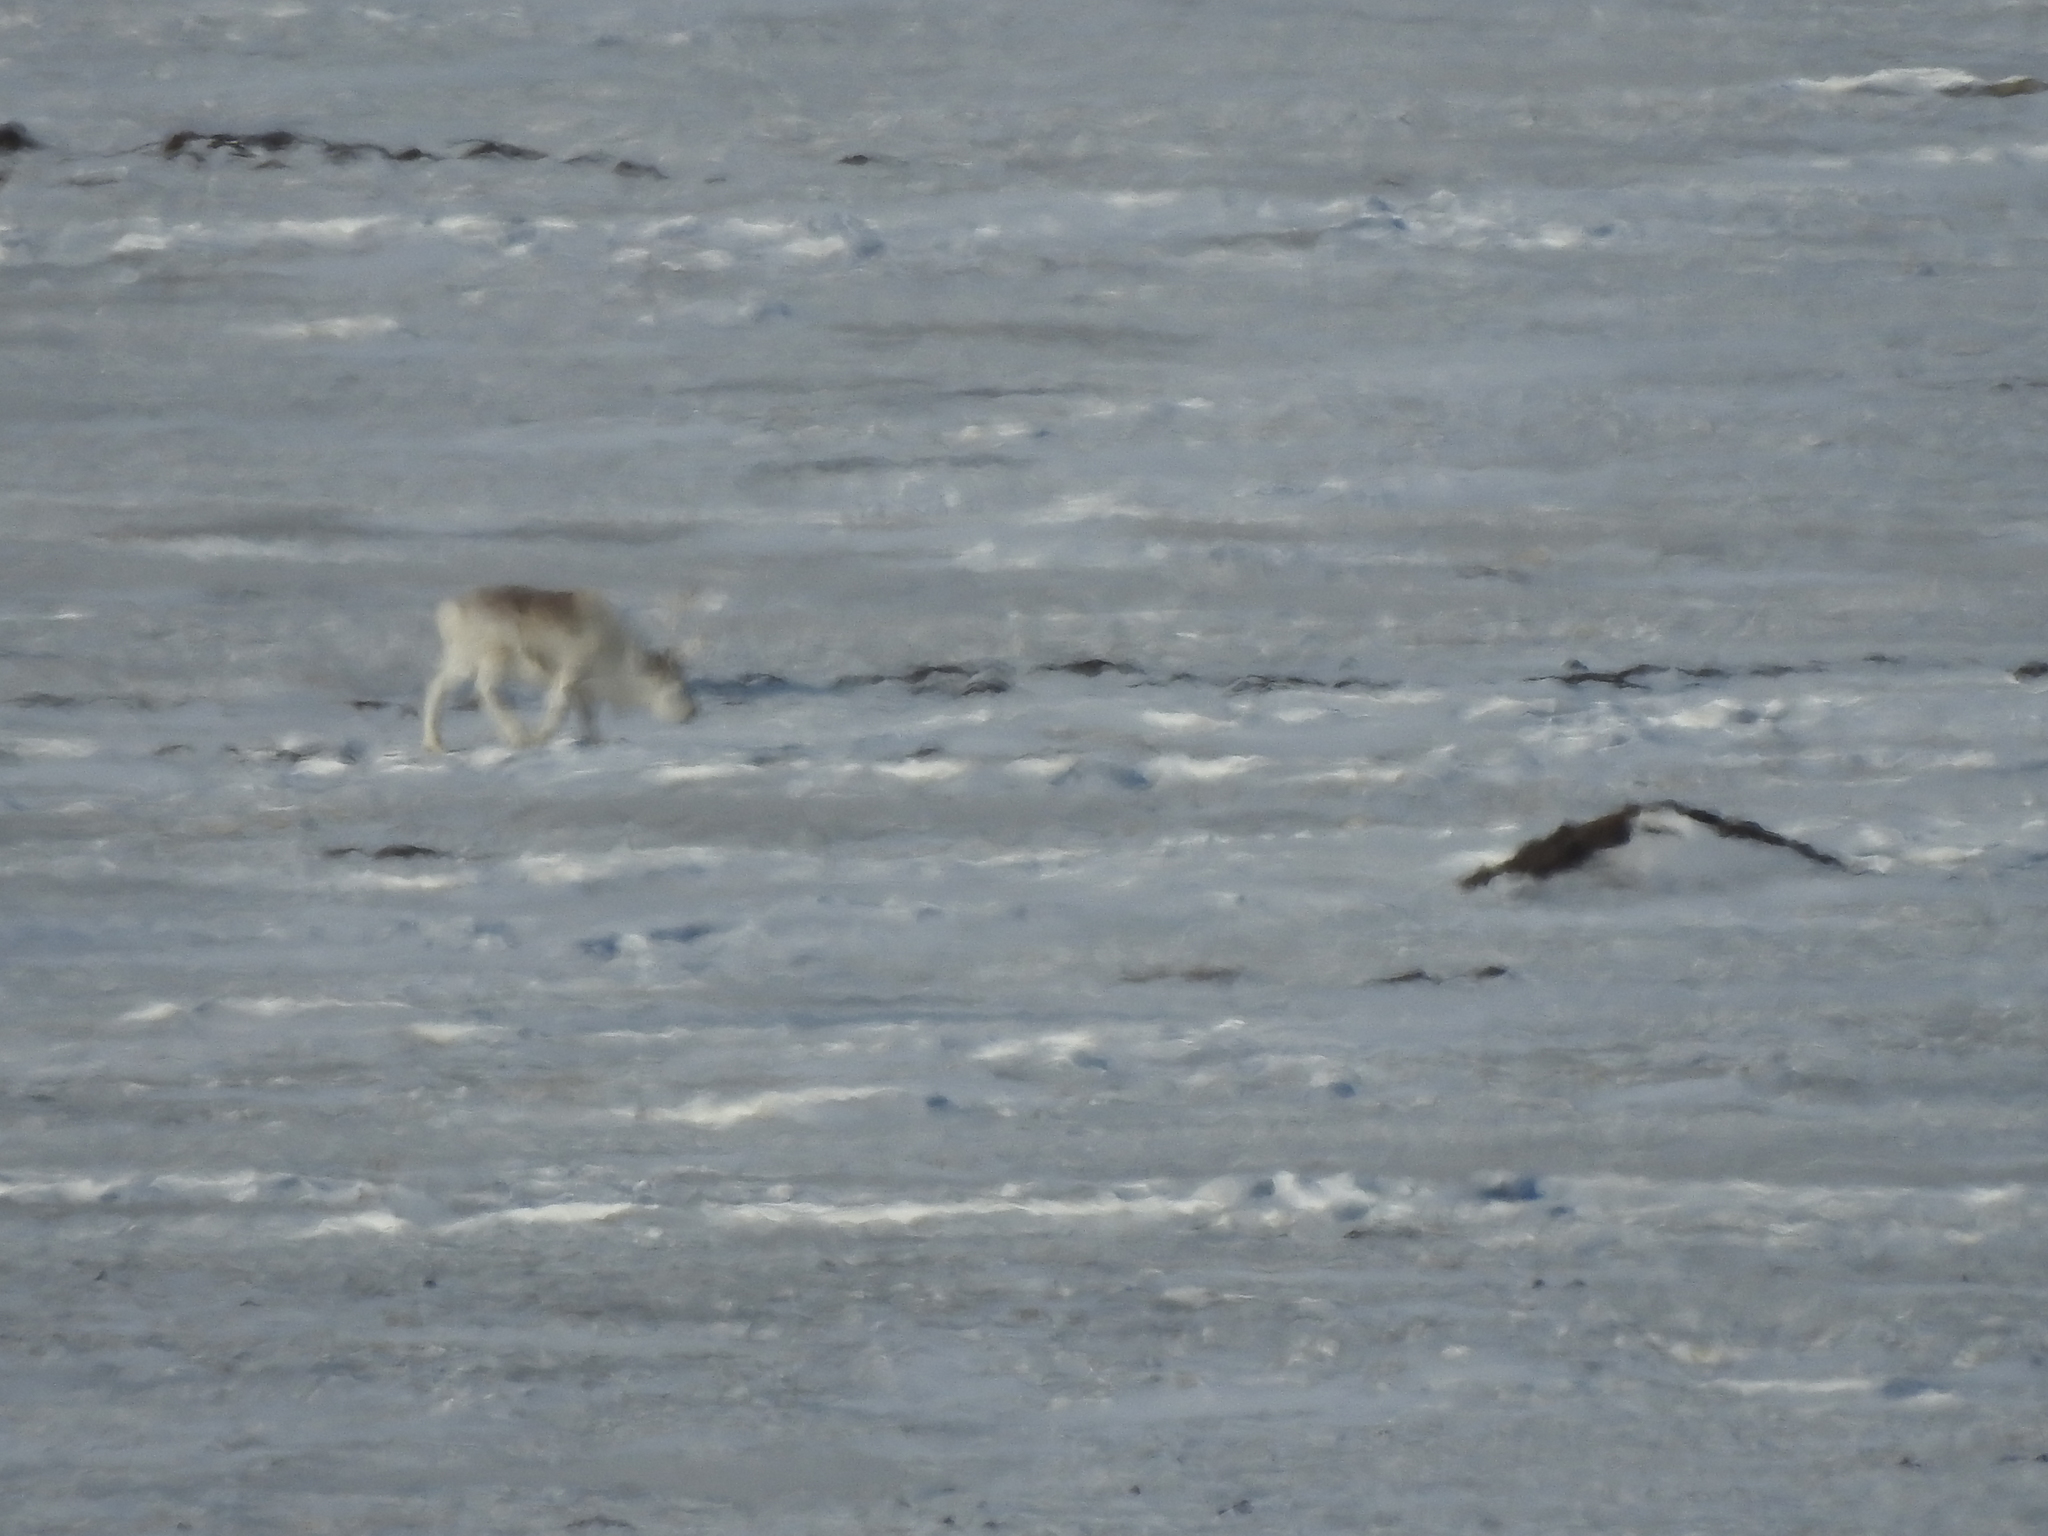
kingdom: Animalia
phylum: Chordata
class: Mammalia
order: Artiodactyla
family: Cervidae
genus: Rangifer
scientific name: Rangifer tarandus
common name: Reindeer
